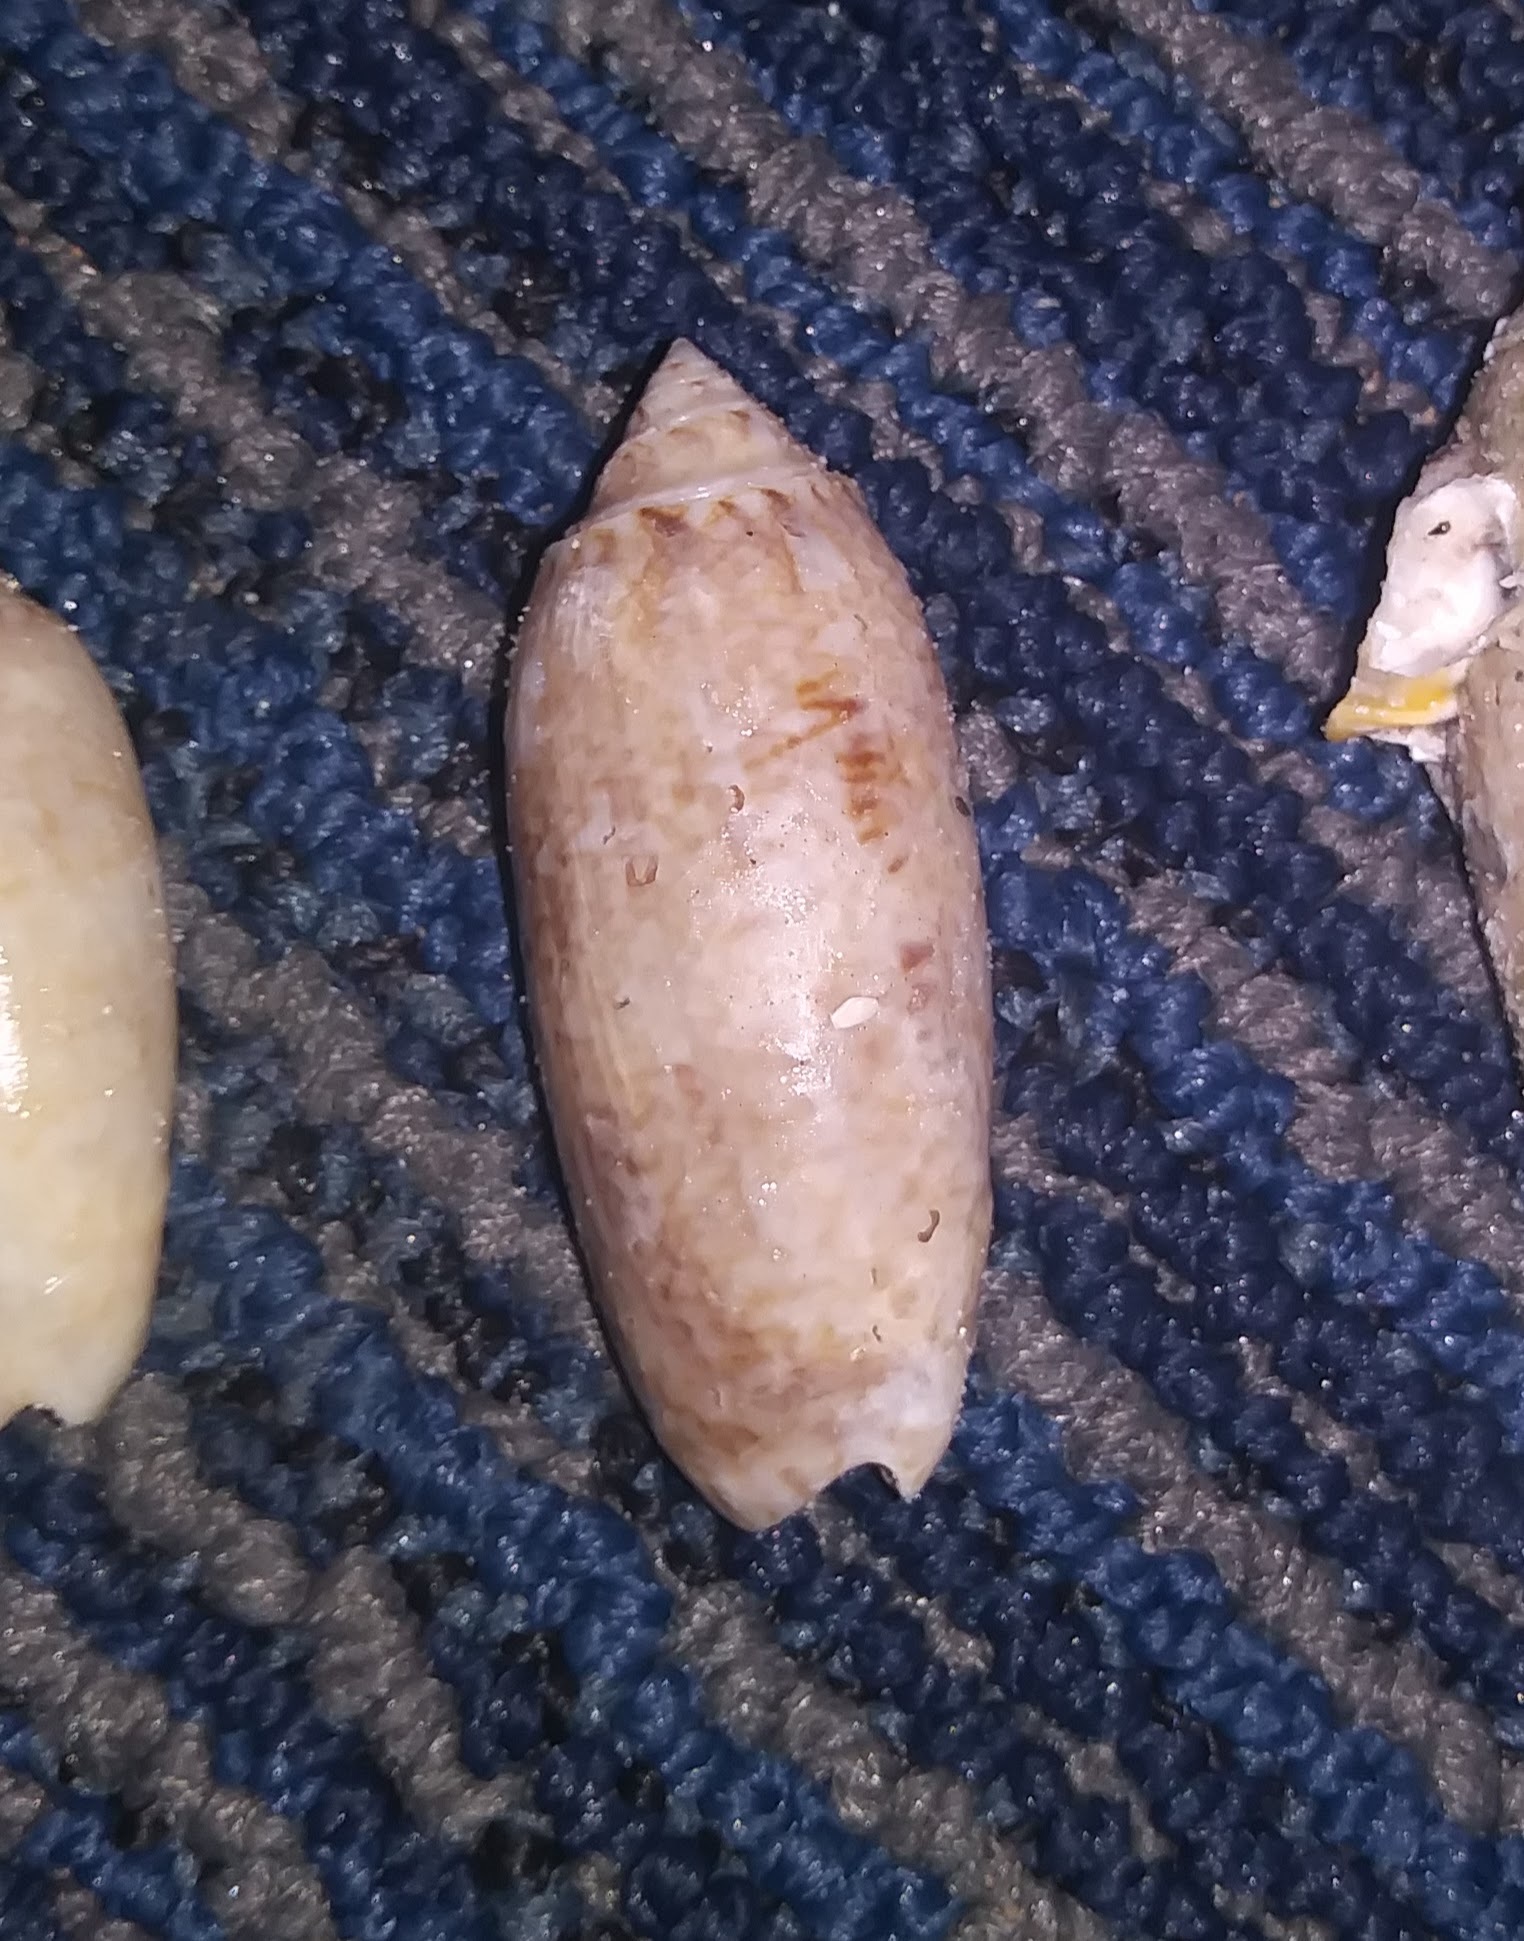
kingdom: Animalia
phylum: Mollusca
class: Gastropoda
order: Neogastropoda
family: Olividae
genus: Oliva
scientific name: Oliva sayana
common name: Lettered olive
